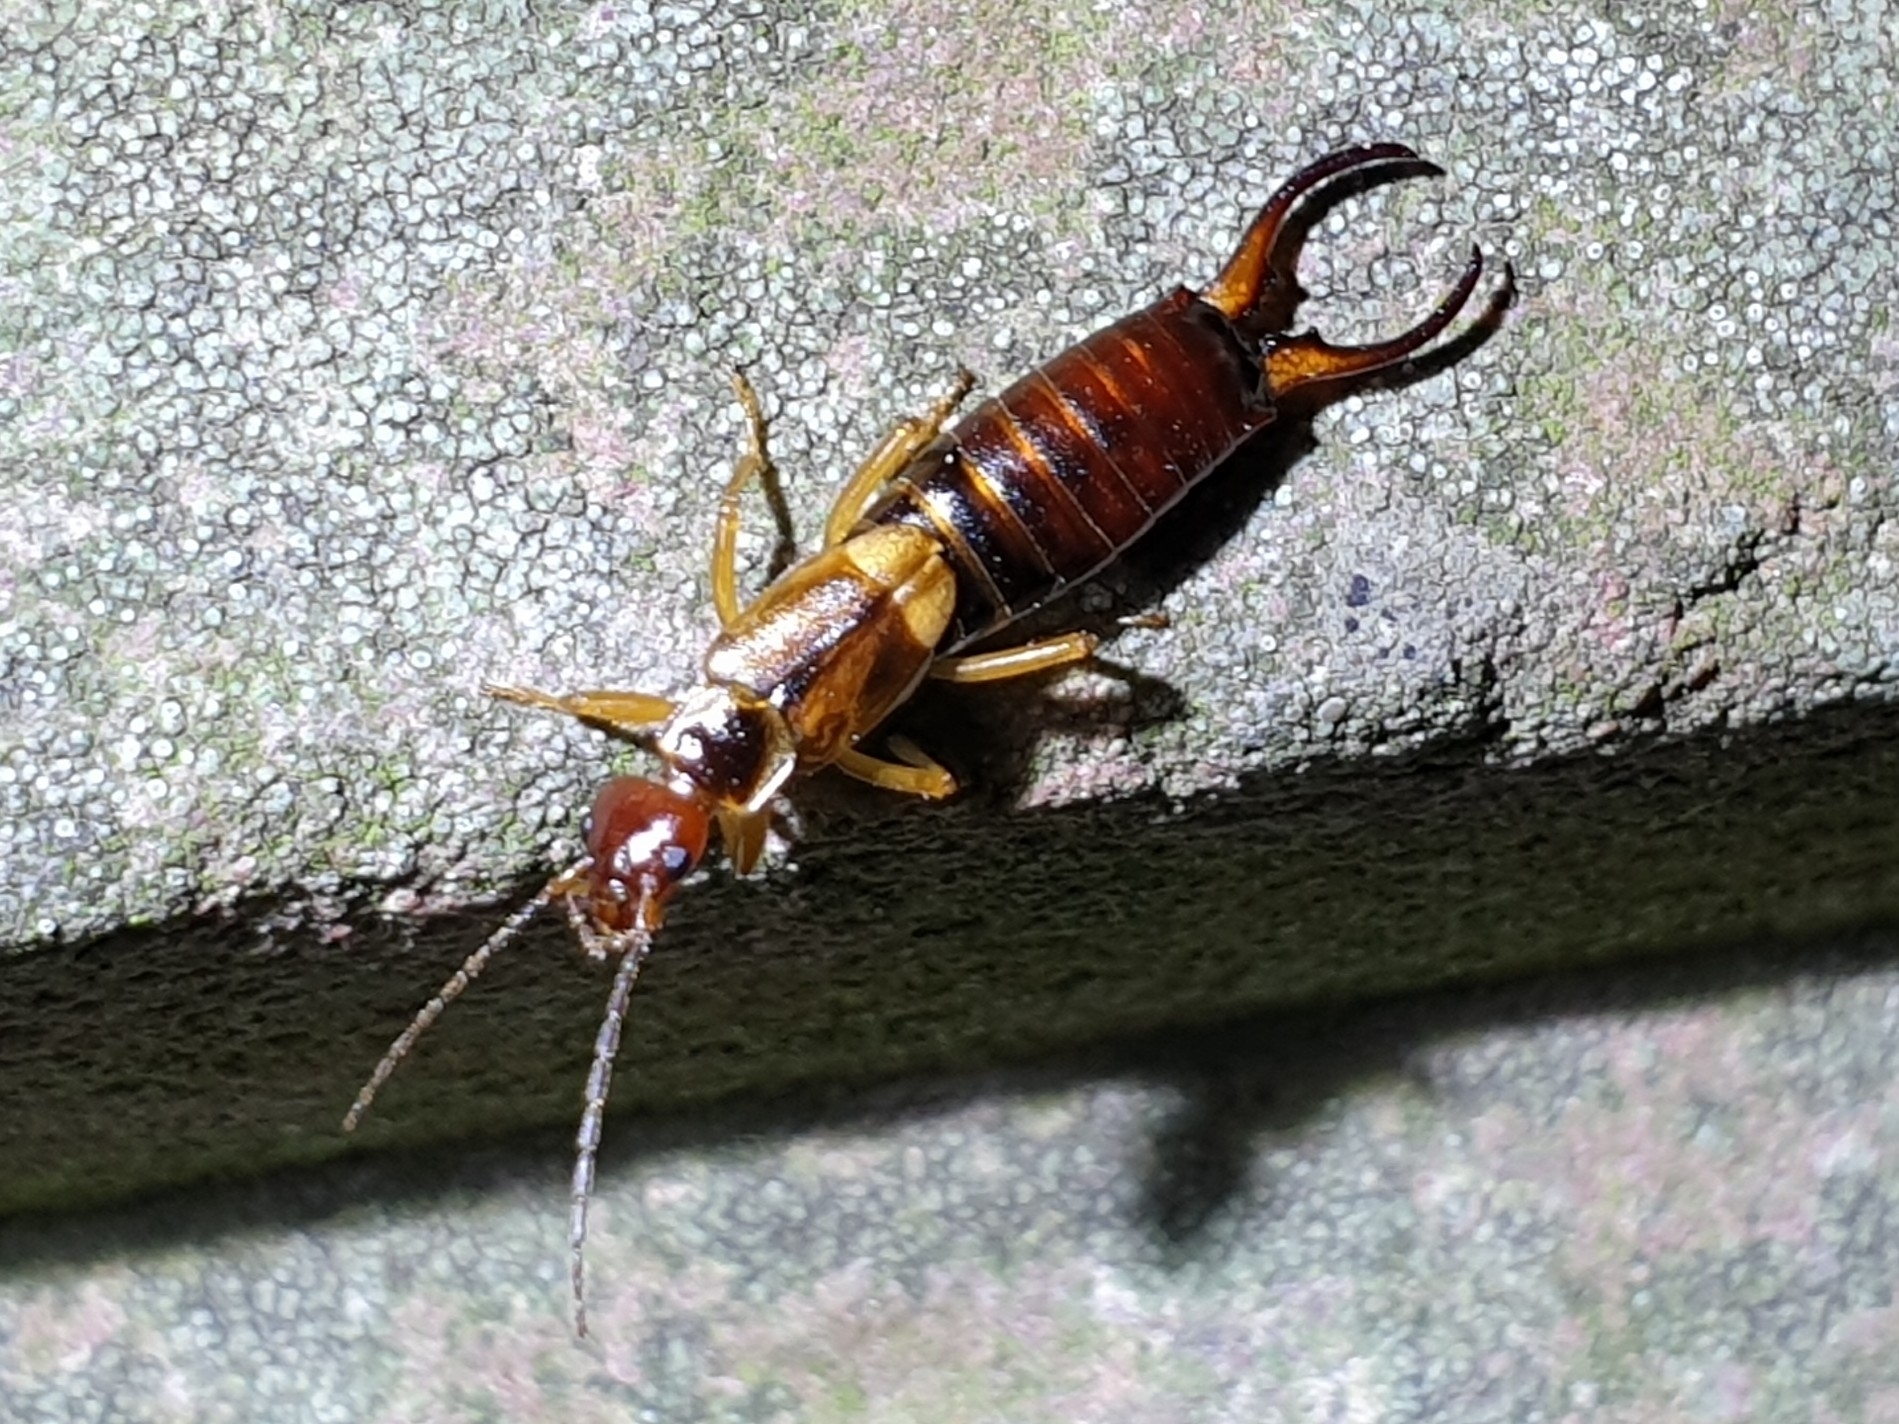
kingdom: Animalia
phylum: Arthropoda
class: Insecta
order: Dermaptera
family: Forficulidae
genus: Forficula
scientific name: Forficula auricularia
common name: European earwig
